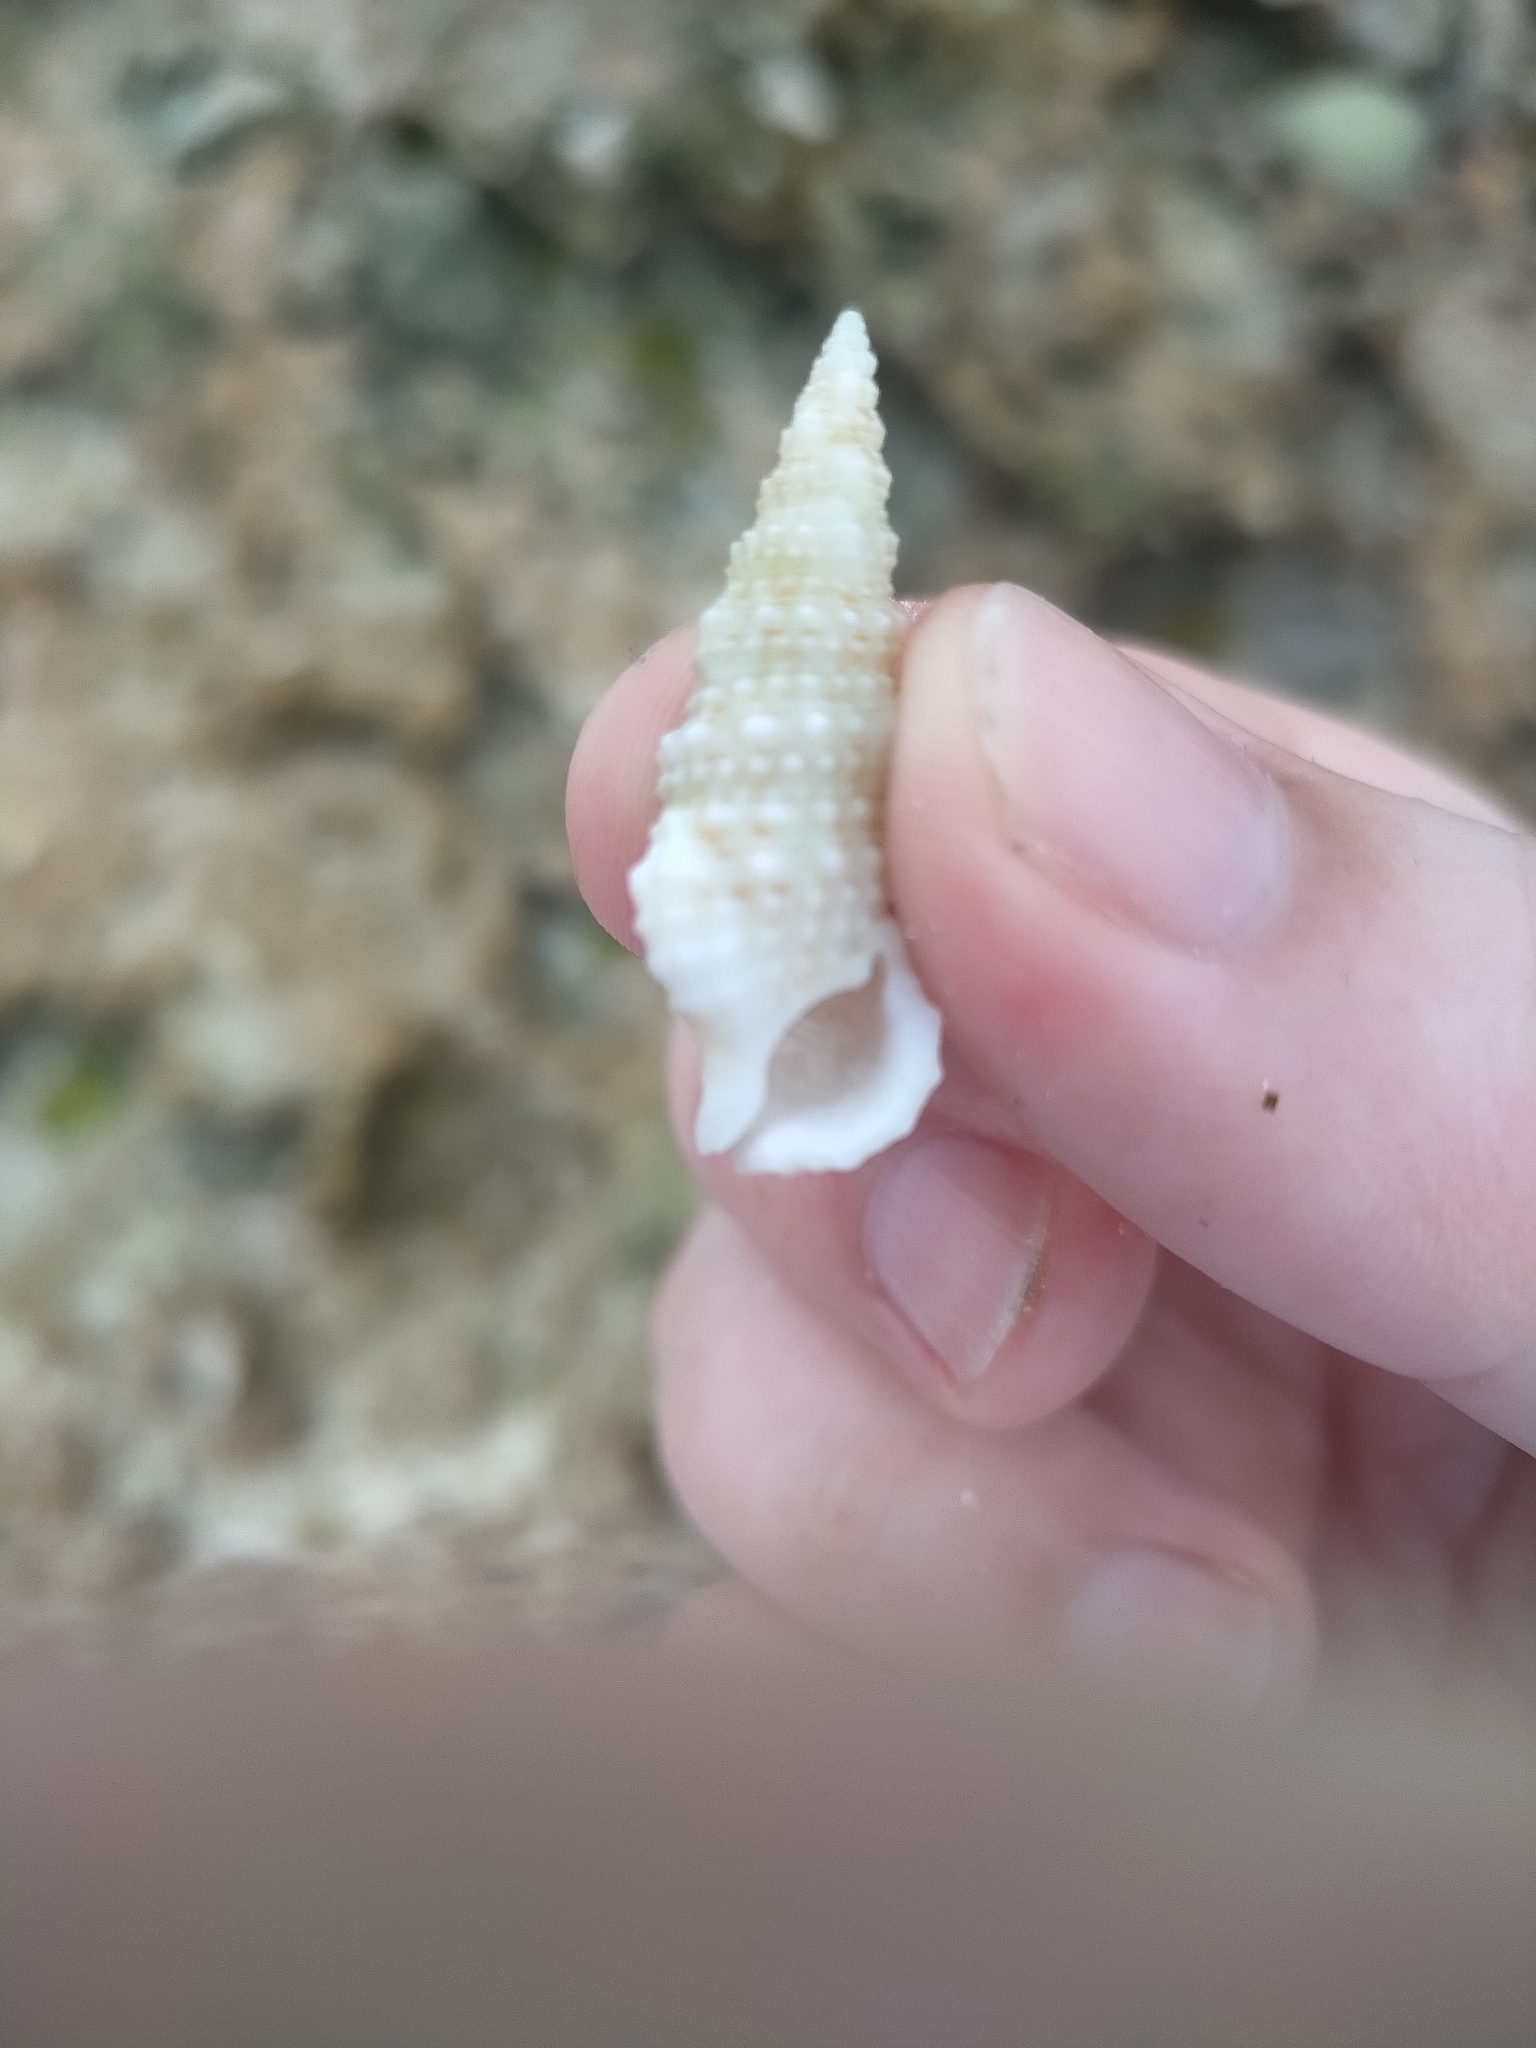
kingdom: Animalia
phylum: Mollusca
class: Gastropoda
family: Cerithiidae
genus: Cerithium
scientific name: Cerithium eburneum
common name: Ivory cerith
